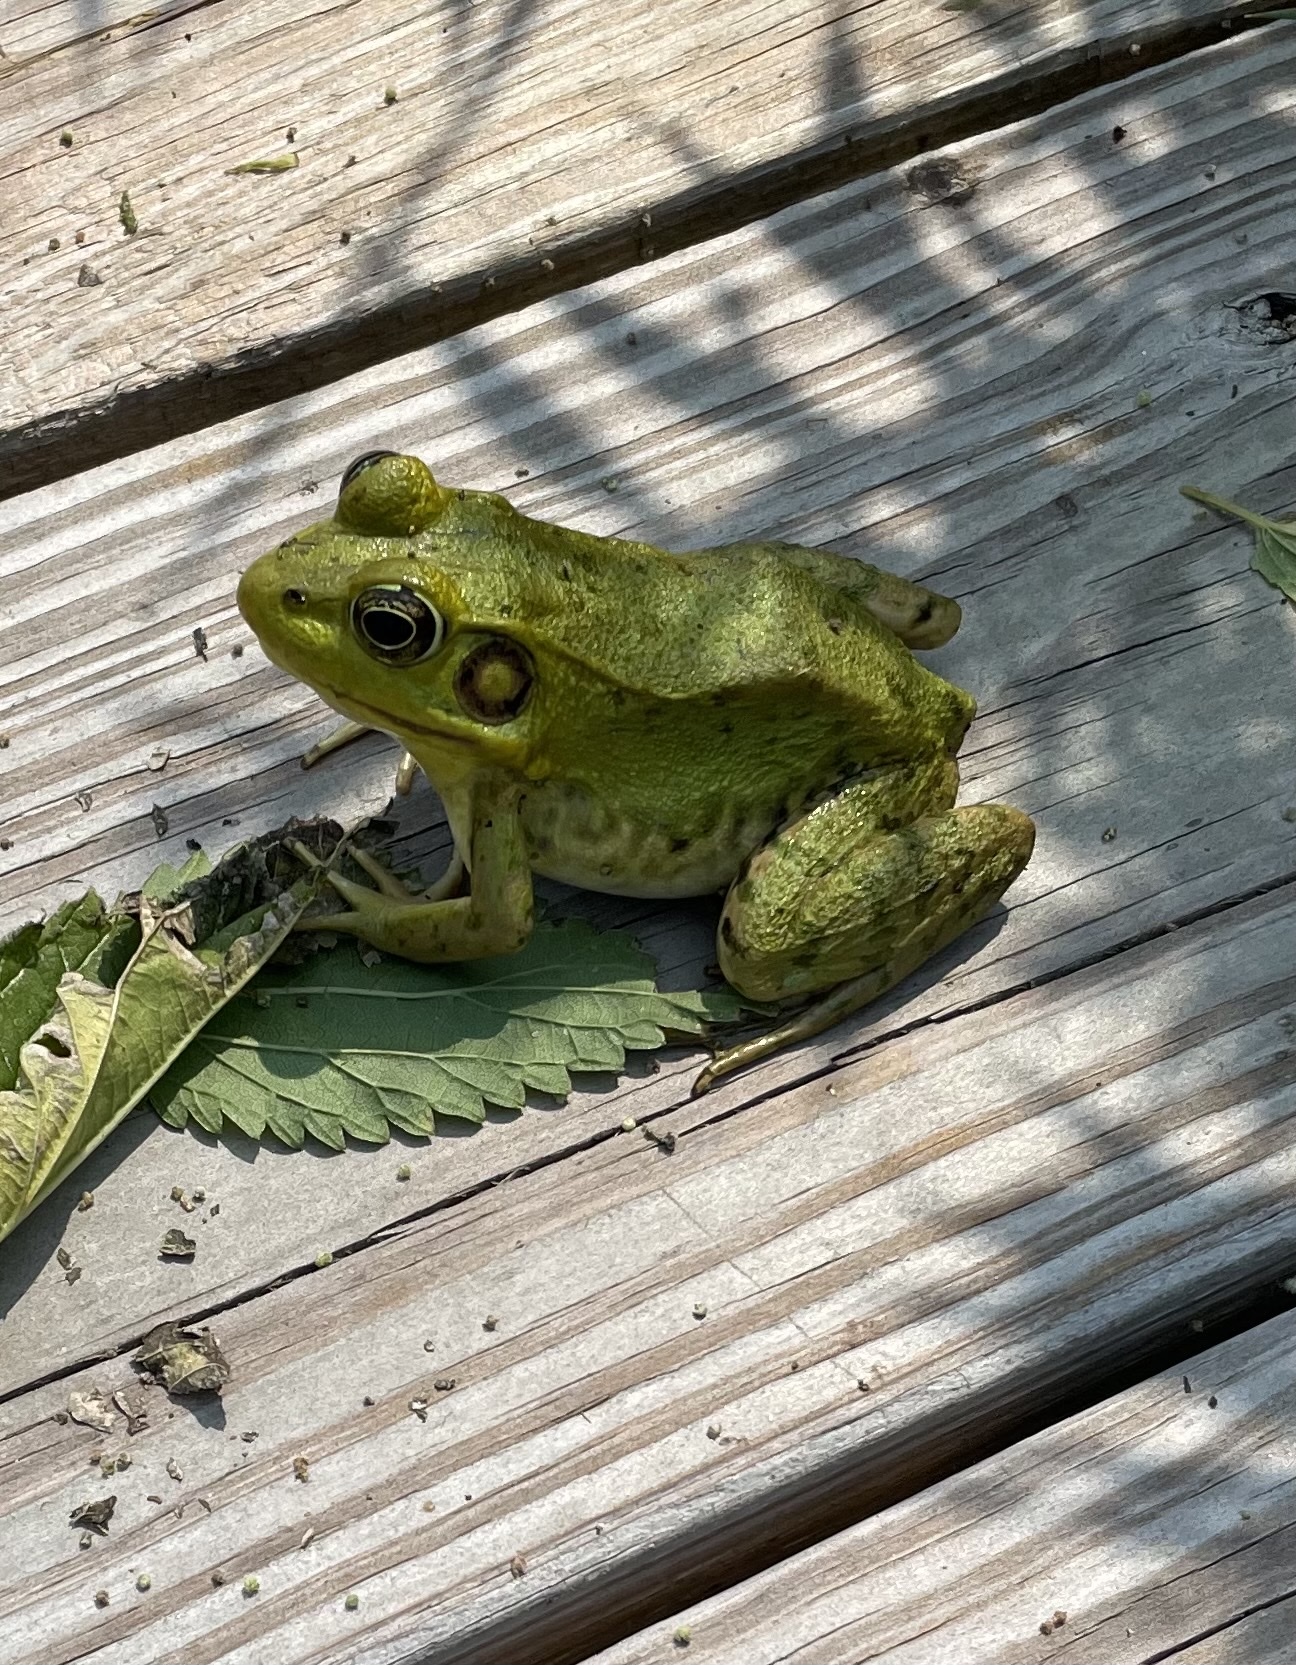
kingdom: Animalia
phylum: Chordata
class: Amphibia
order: Anura
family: Ranidae
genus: Lithobates
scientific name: Lithobates clamitans
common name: Green frog
